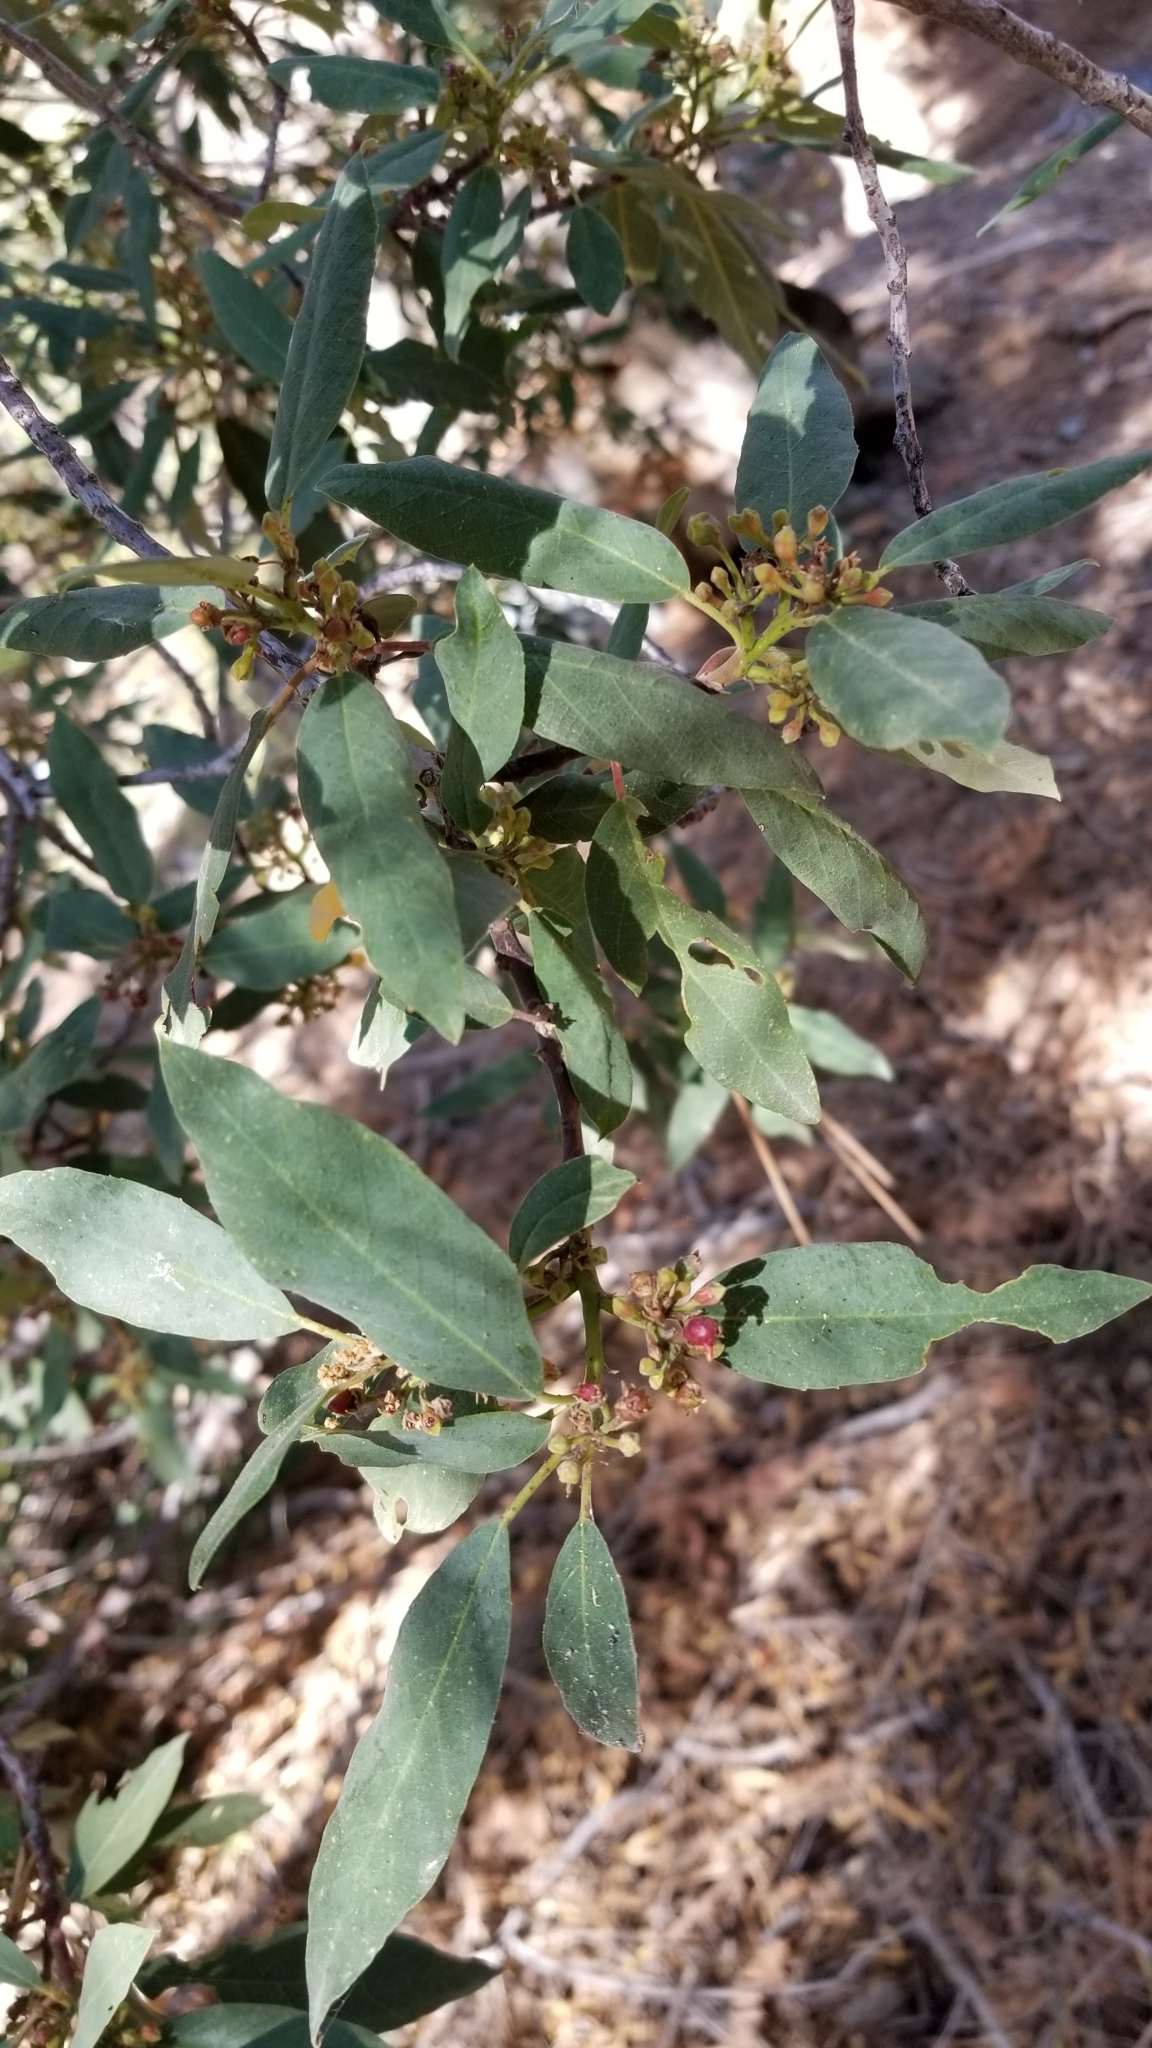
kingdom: Plantae
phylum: Tracheophyta
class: Magnoliopsida
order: Rosales
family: Rhamnaceae
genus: Frangula
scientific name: Frangula californica
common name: California buckthorn
